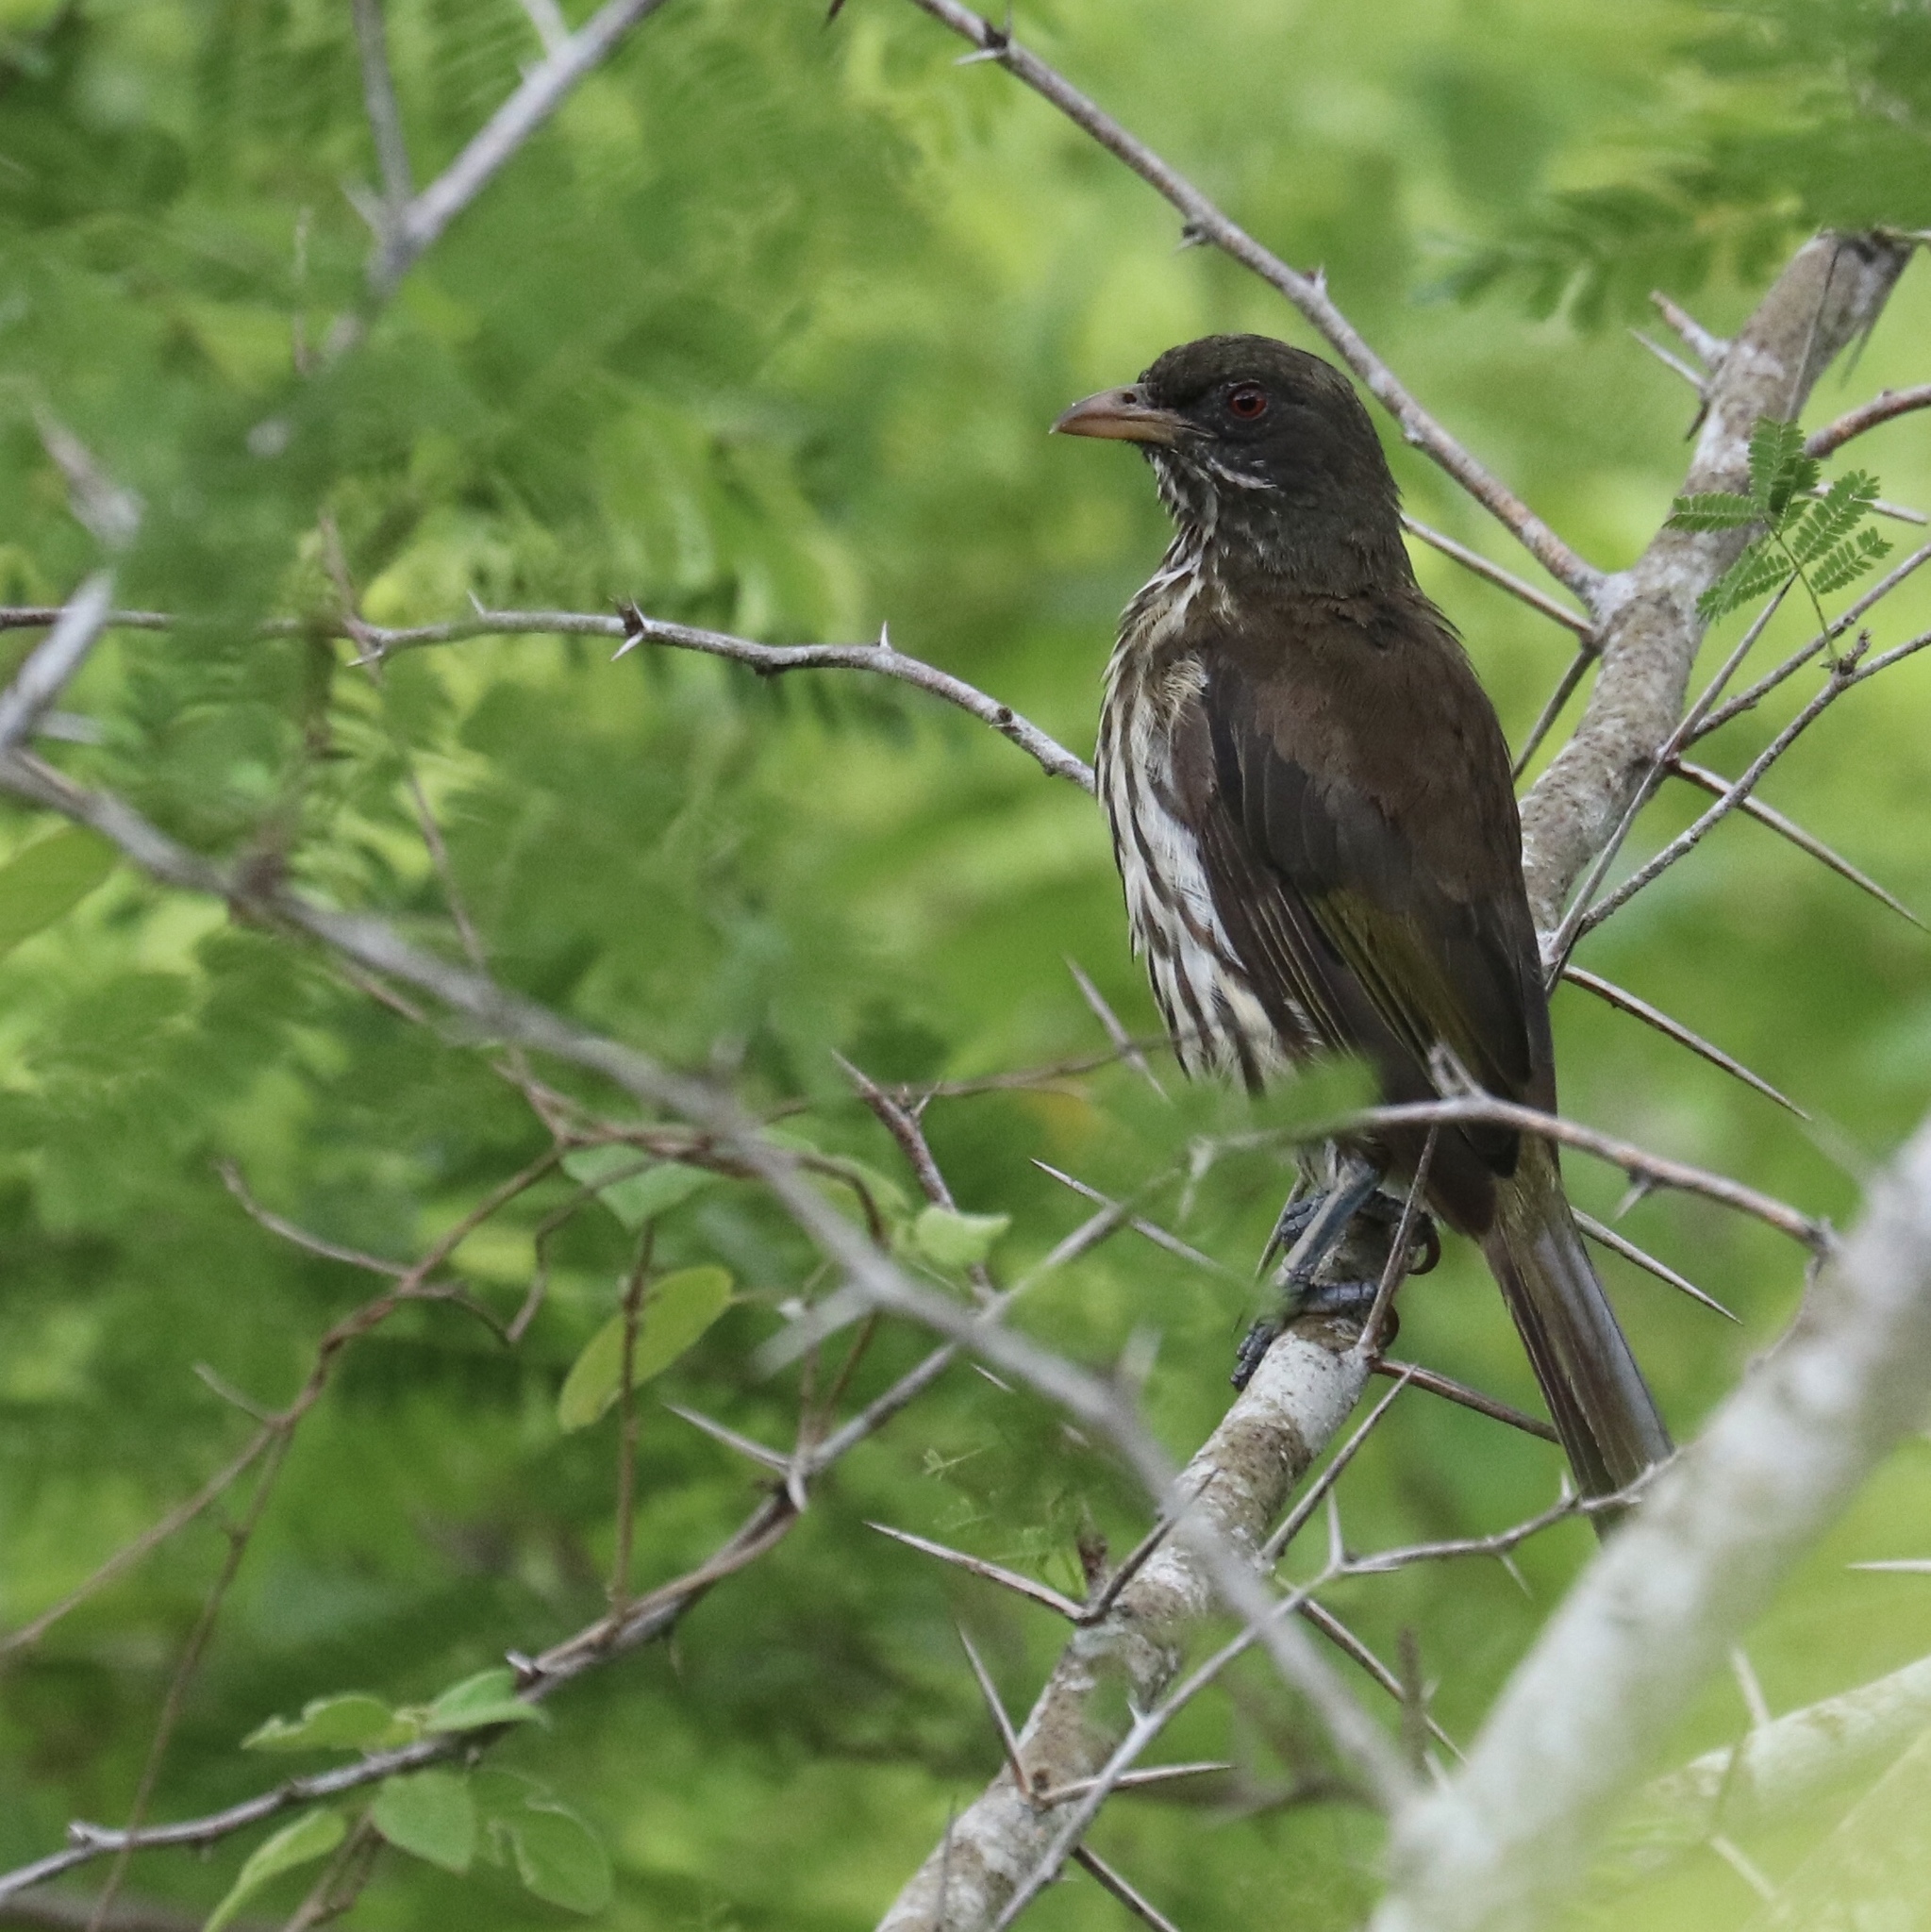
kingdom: Animalia
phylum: Chordata
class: Aves
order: Passeriformes
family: Dulidae
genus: Dulus
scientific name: Dulus dominicus
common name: Palmchat
